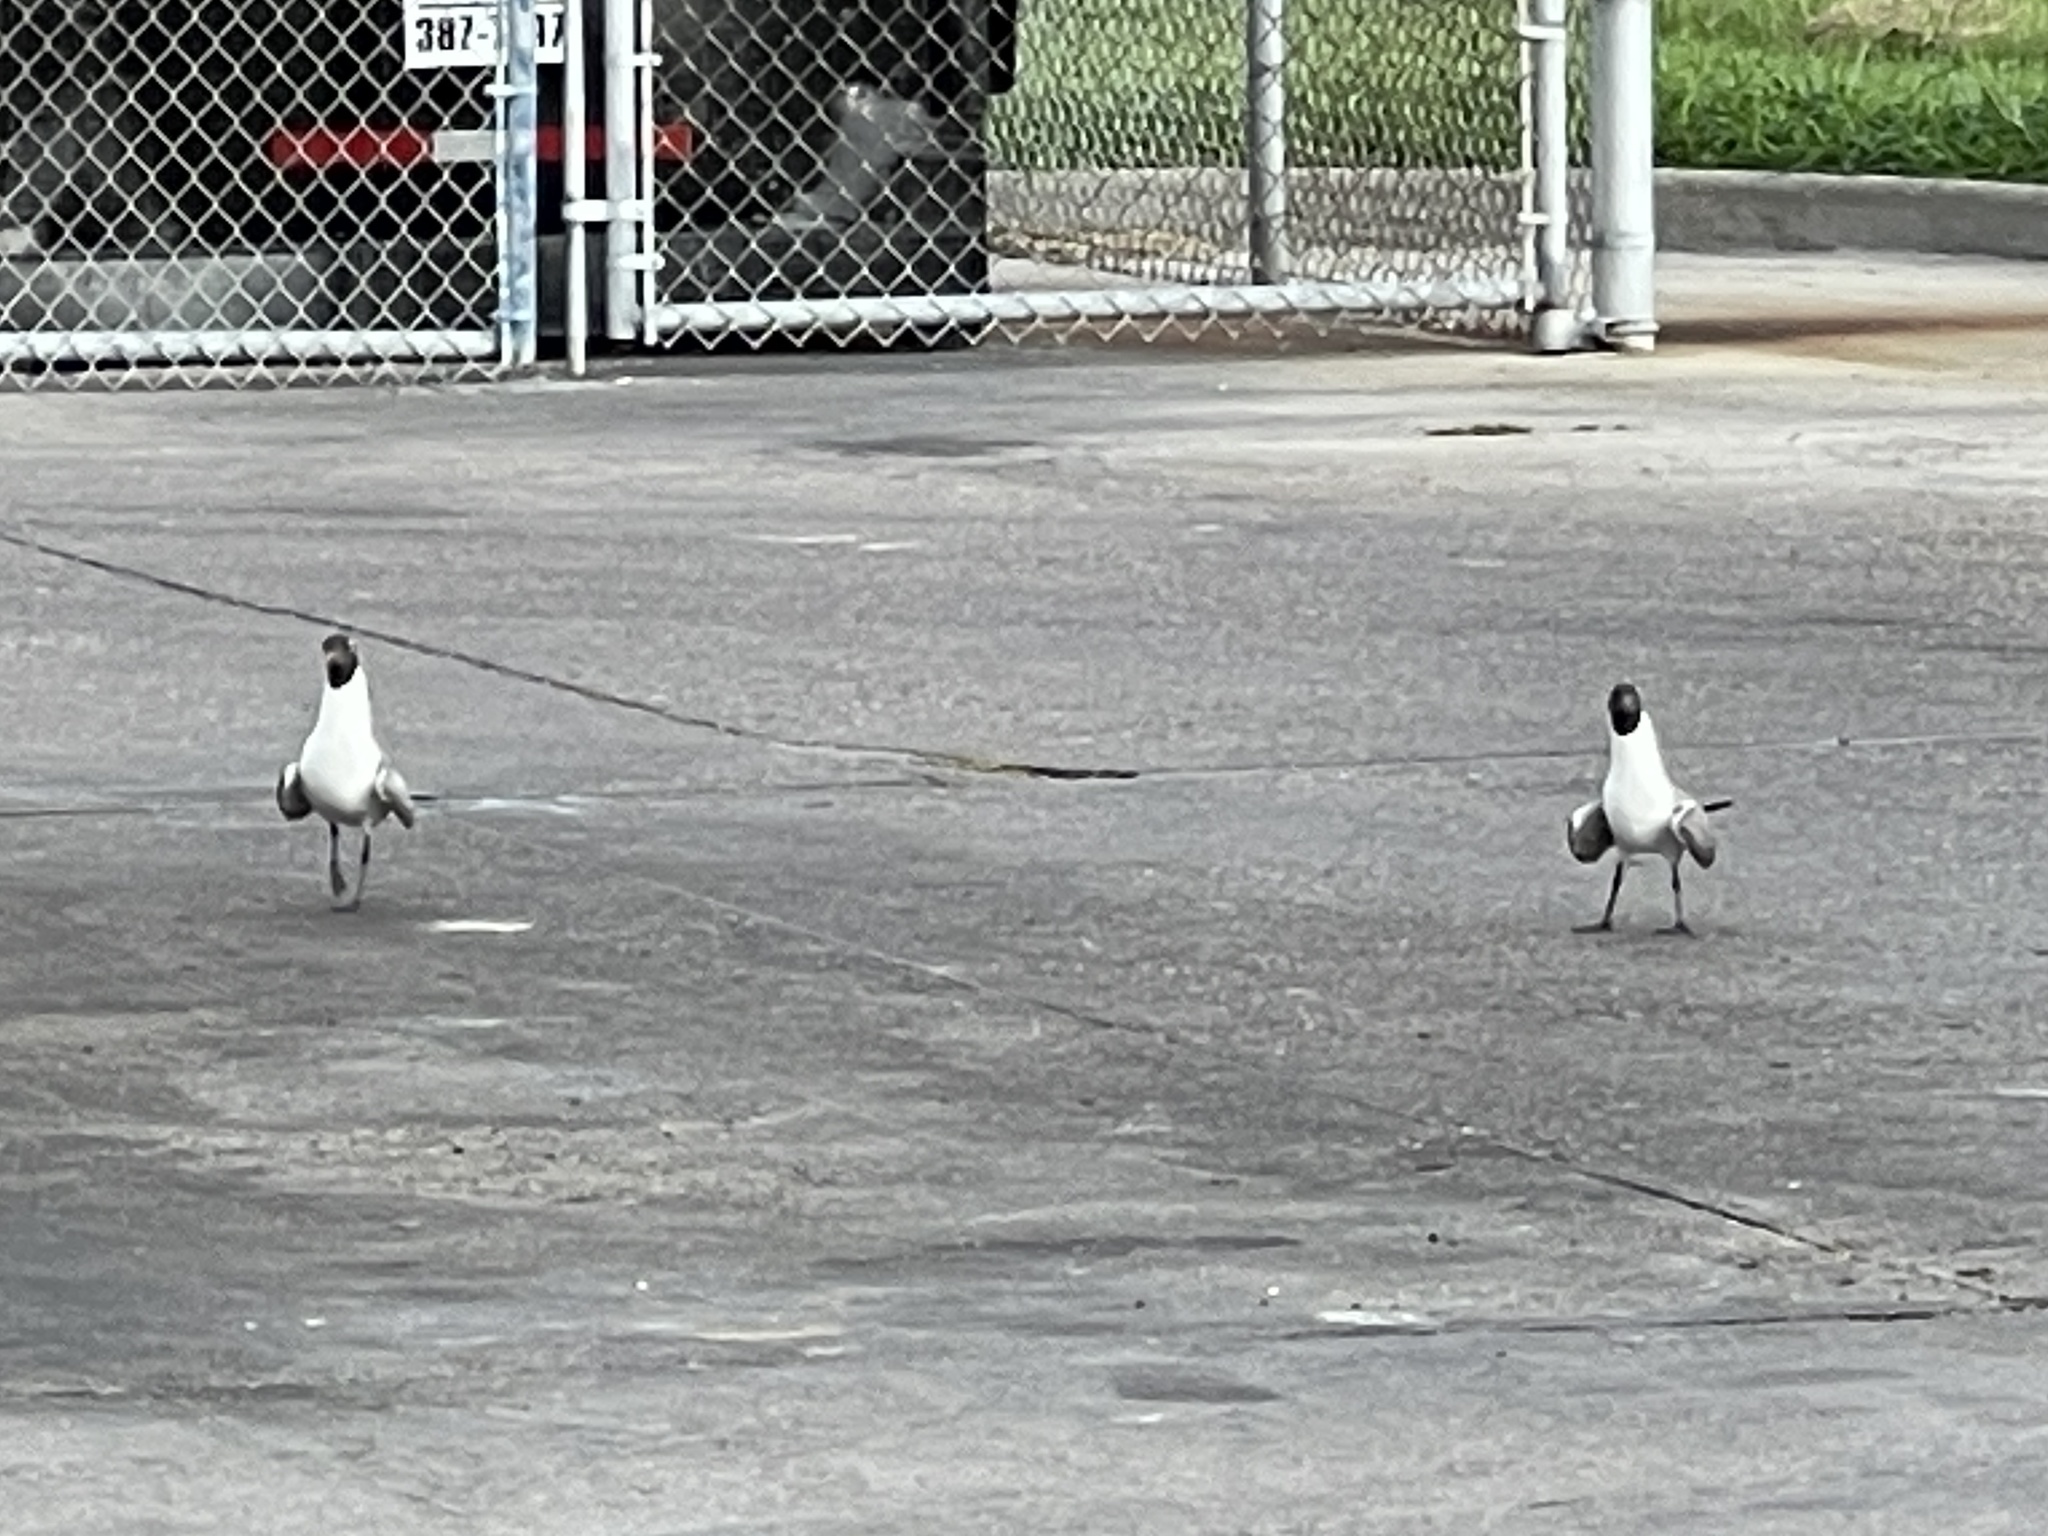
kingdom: Animalia
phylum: Chordata
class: Aves
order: Charadriiformes
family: Laridae
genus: Leucophaeus
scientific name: Leucophaeus atricilla
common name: Laughing gull
